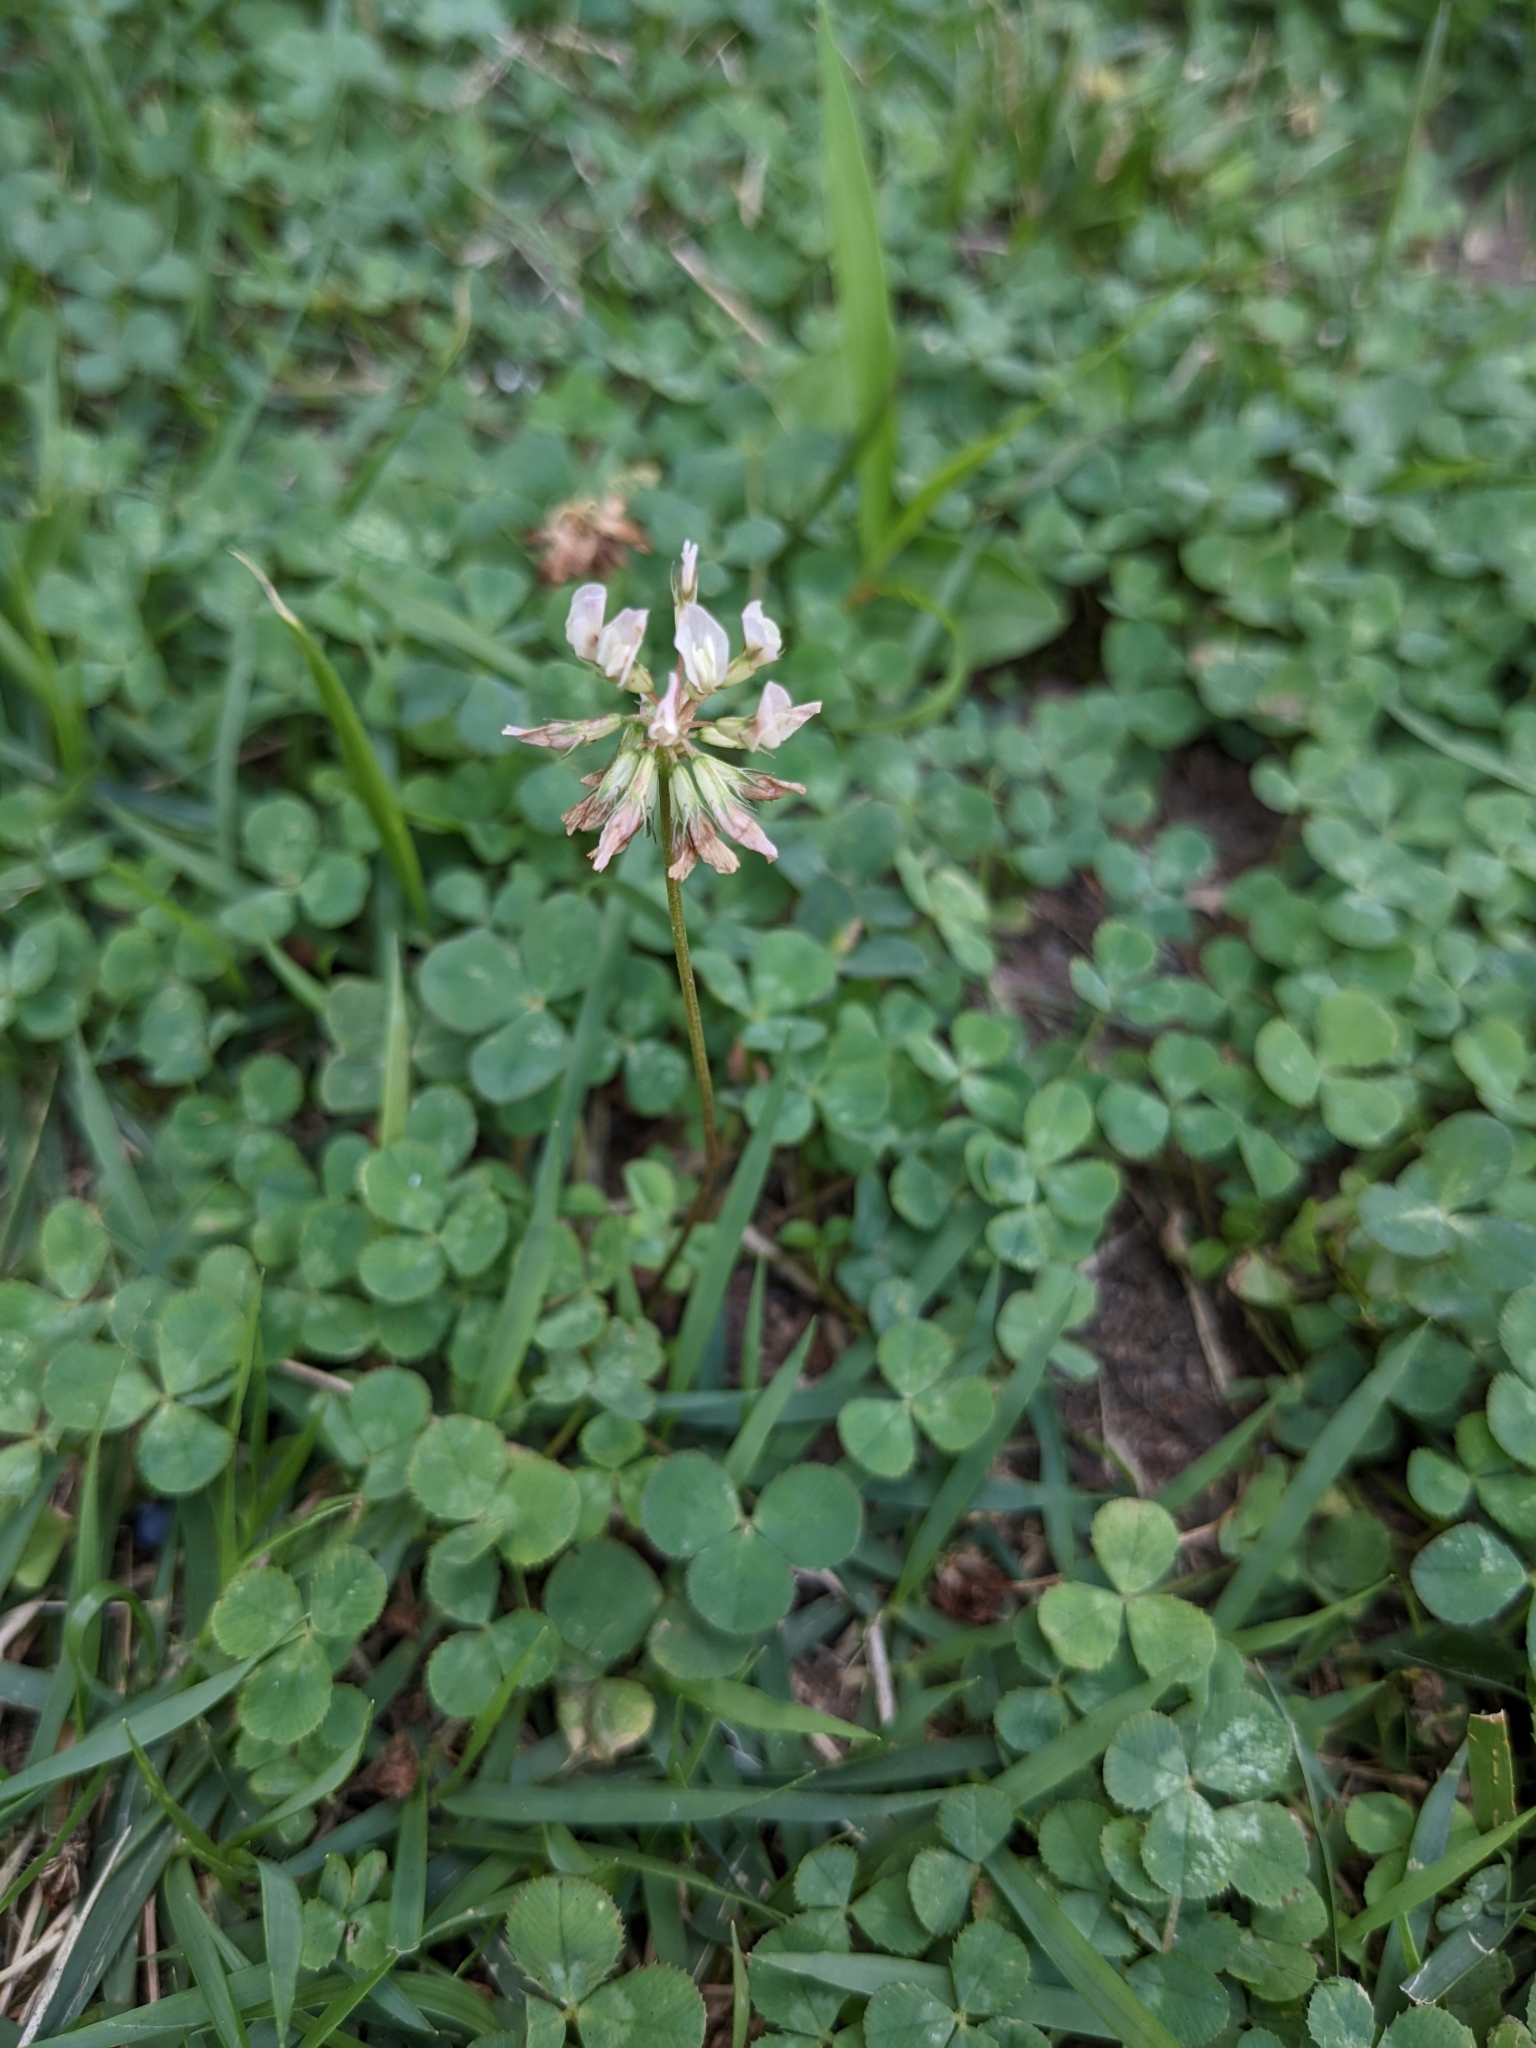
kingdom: Plantae
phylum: Tracheophyta
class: Magnoliopsida
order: Fabales
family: Fabaceae
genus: Trifolium
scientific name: Trifolium repens
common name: White clover
